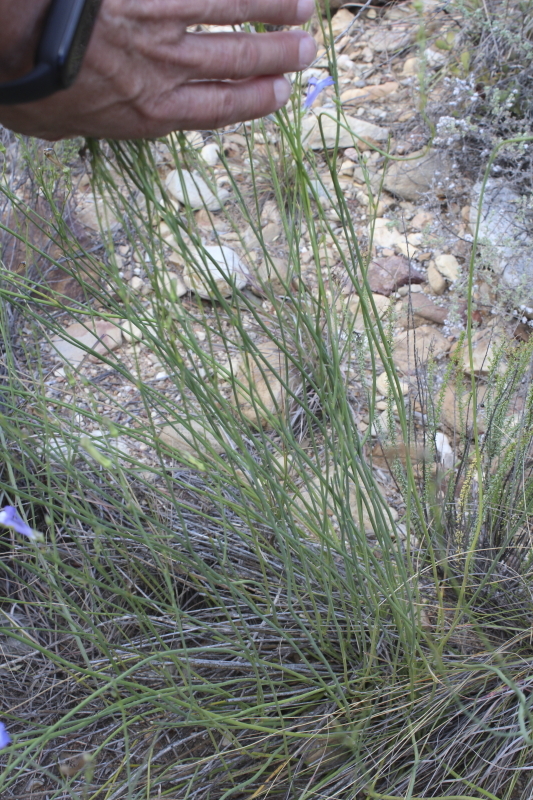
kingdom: Plantae
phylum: Tracheophyta
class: Magnoliopsida
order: Asterales
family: Campanulaceae
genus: Lobelia
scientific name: Lobelia linearis
